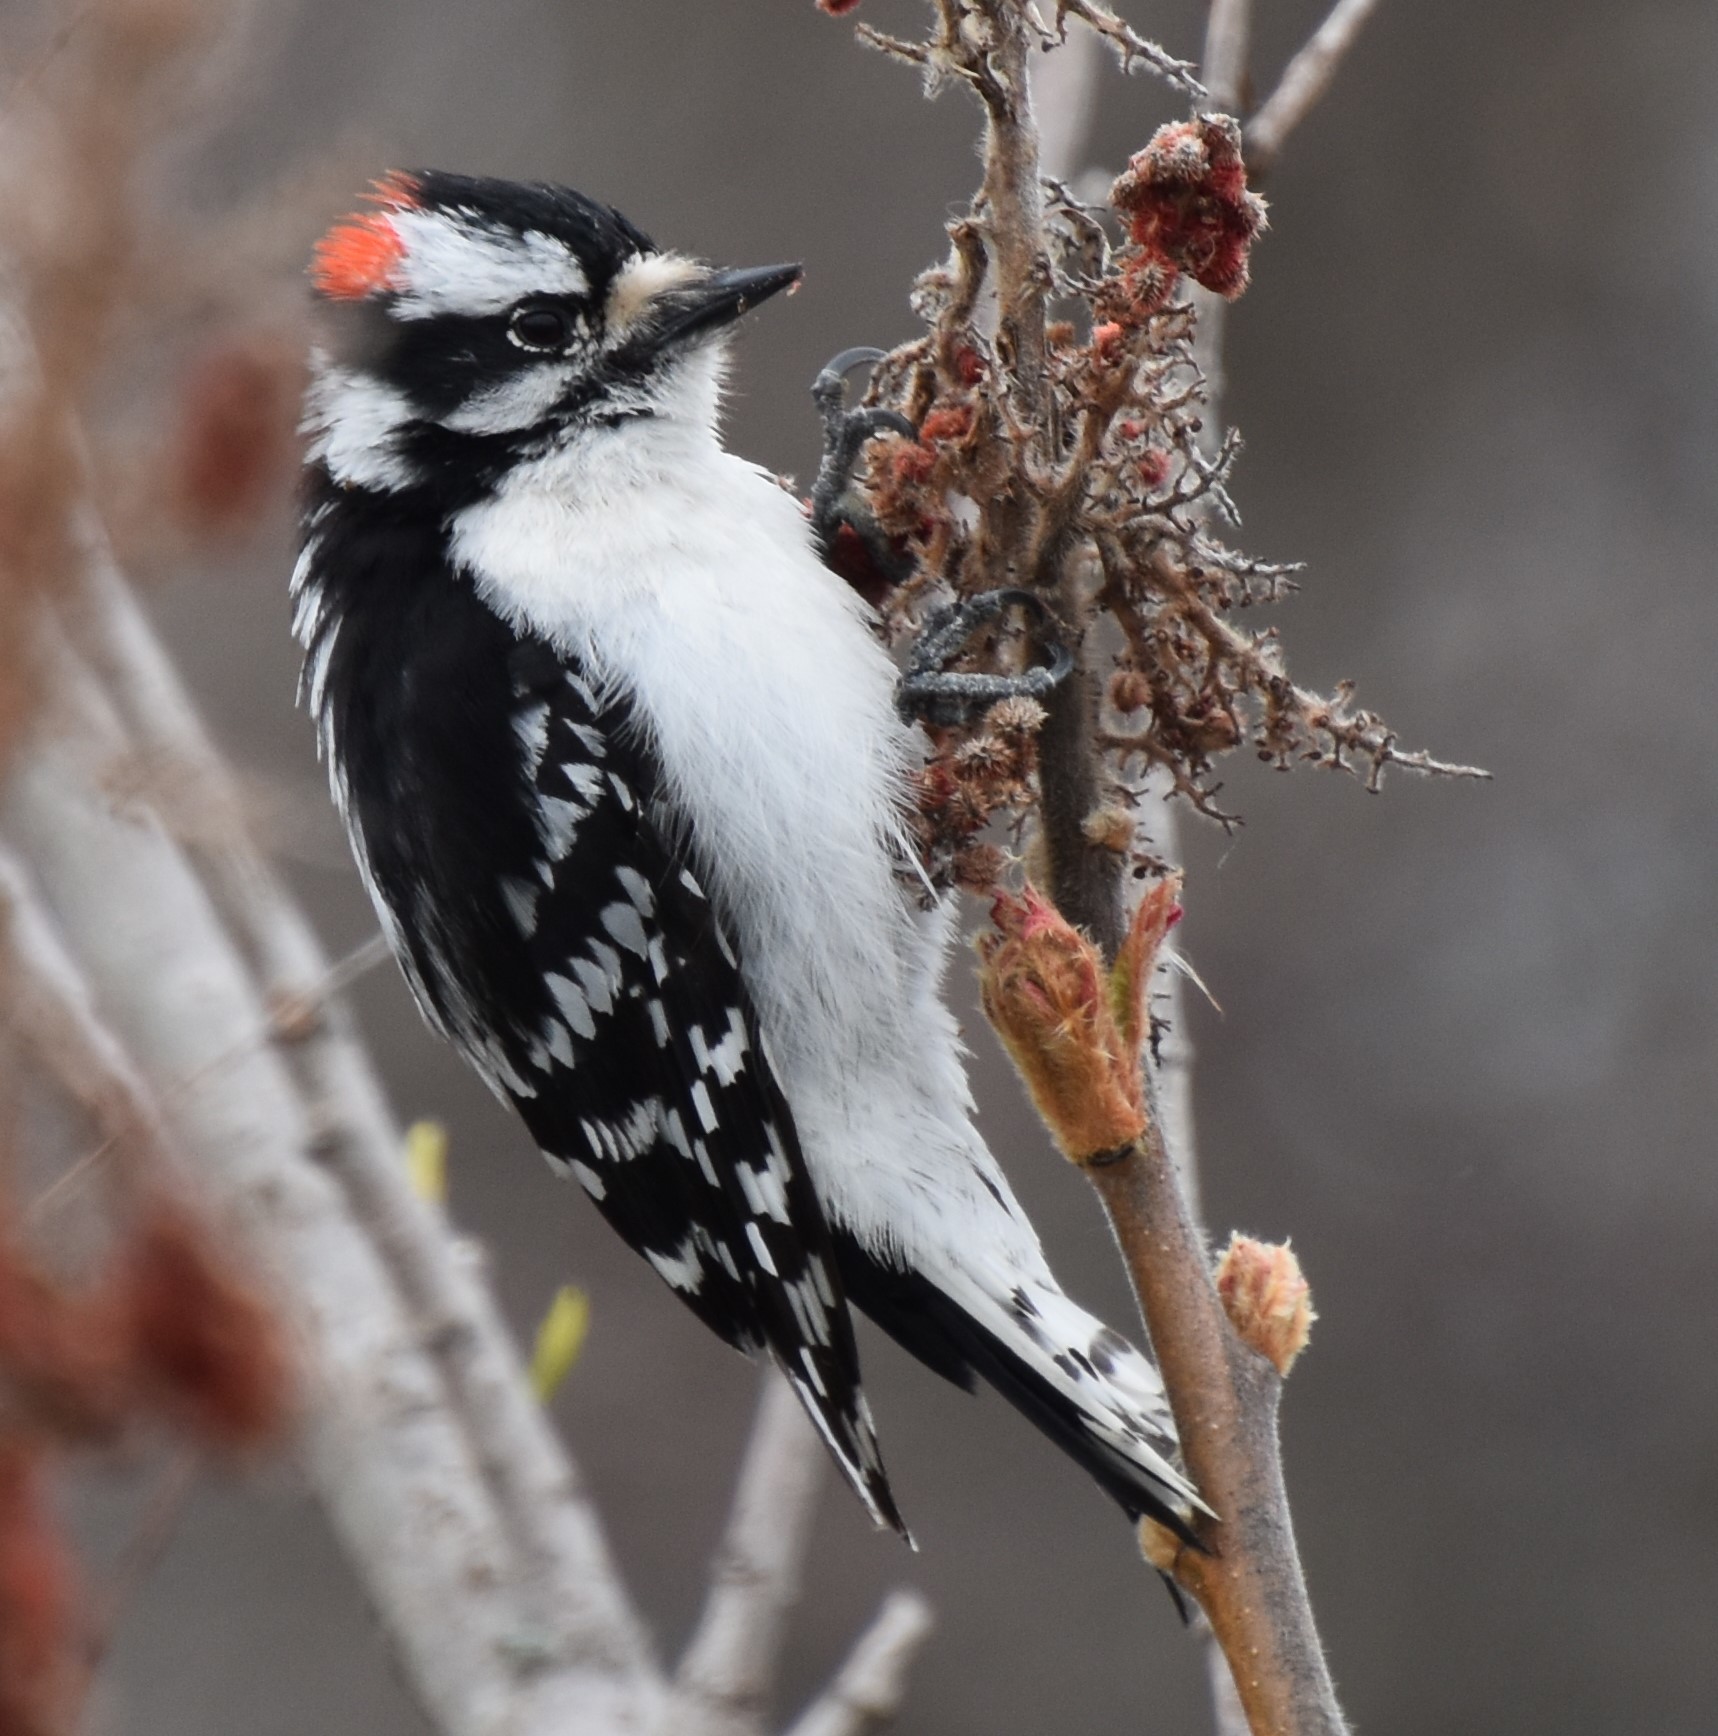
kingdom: Animalia
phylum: Chordata
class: Aves
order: Piciformes
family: Picidae
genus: Dryobates
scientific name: Dryobates pubescens
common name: Downy woodpecker
